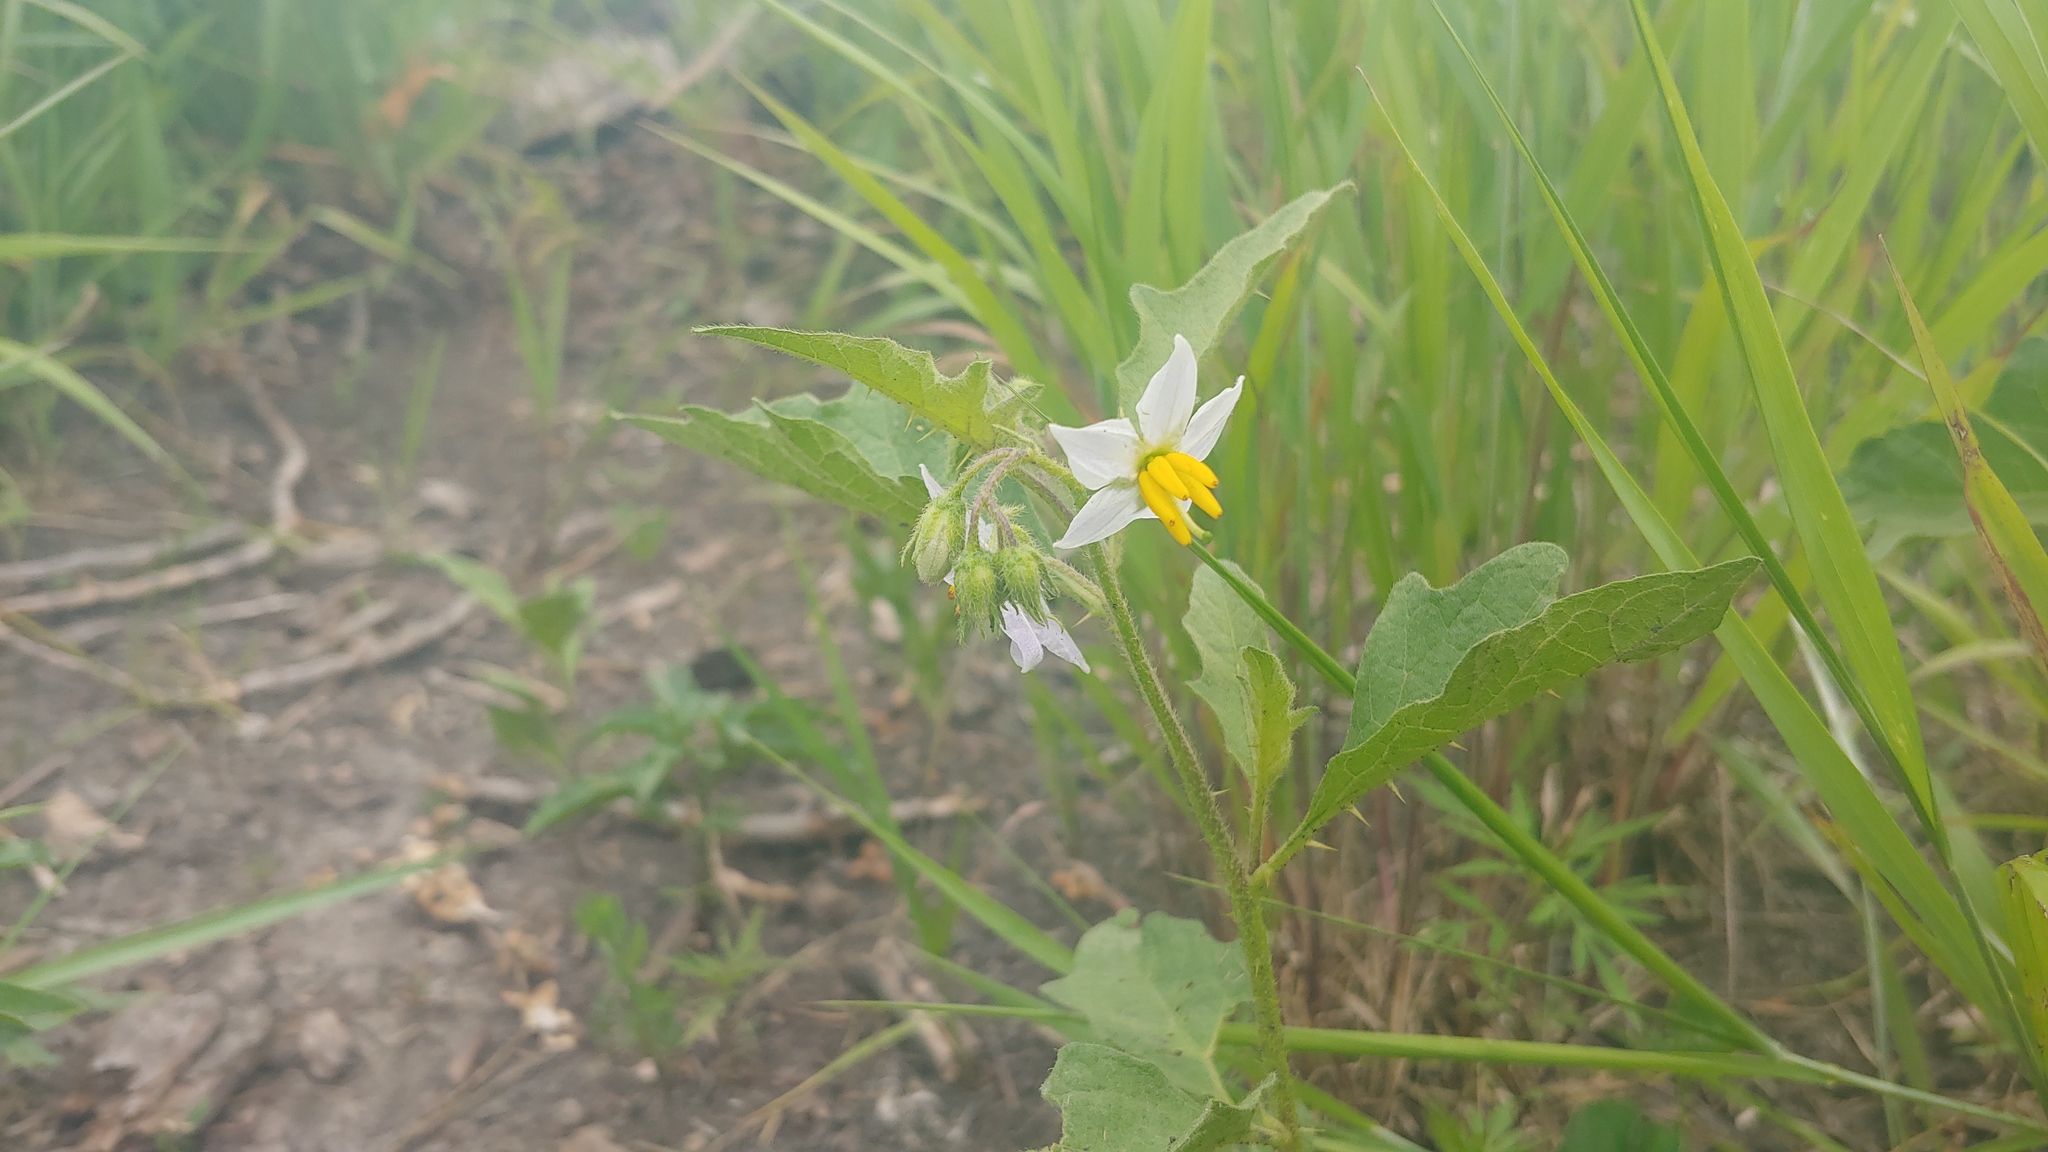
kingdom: Plantae
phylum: Tracheophyta
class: Magnoliopsida
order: Solanales
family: Solanaceae
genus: Solanum
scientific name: Solanum carolinense
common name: Horse-nettle
